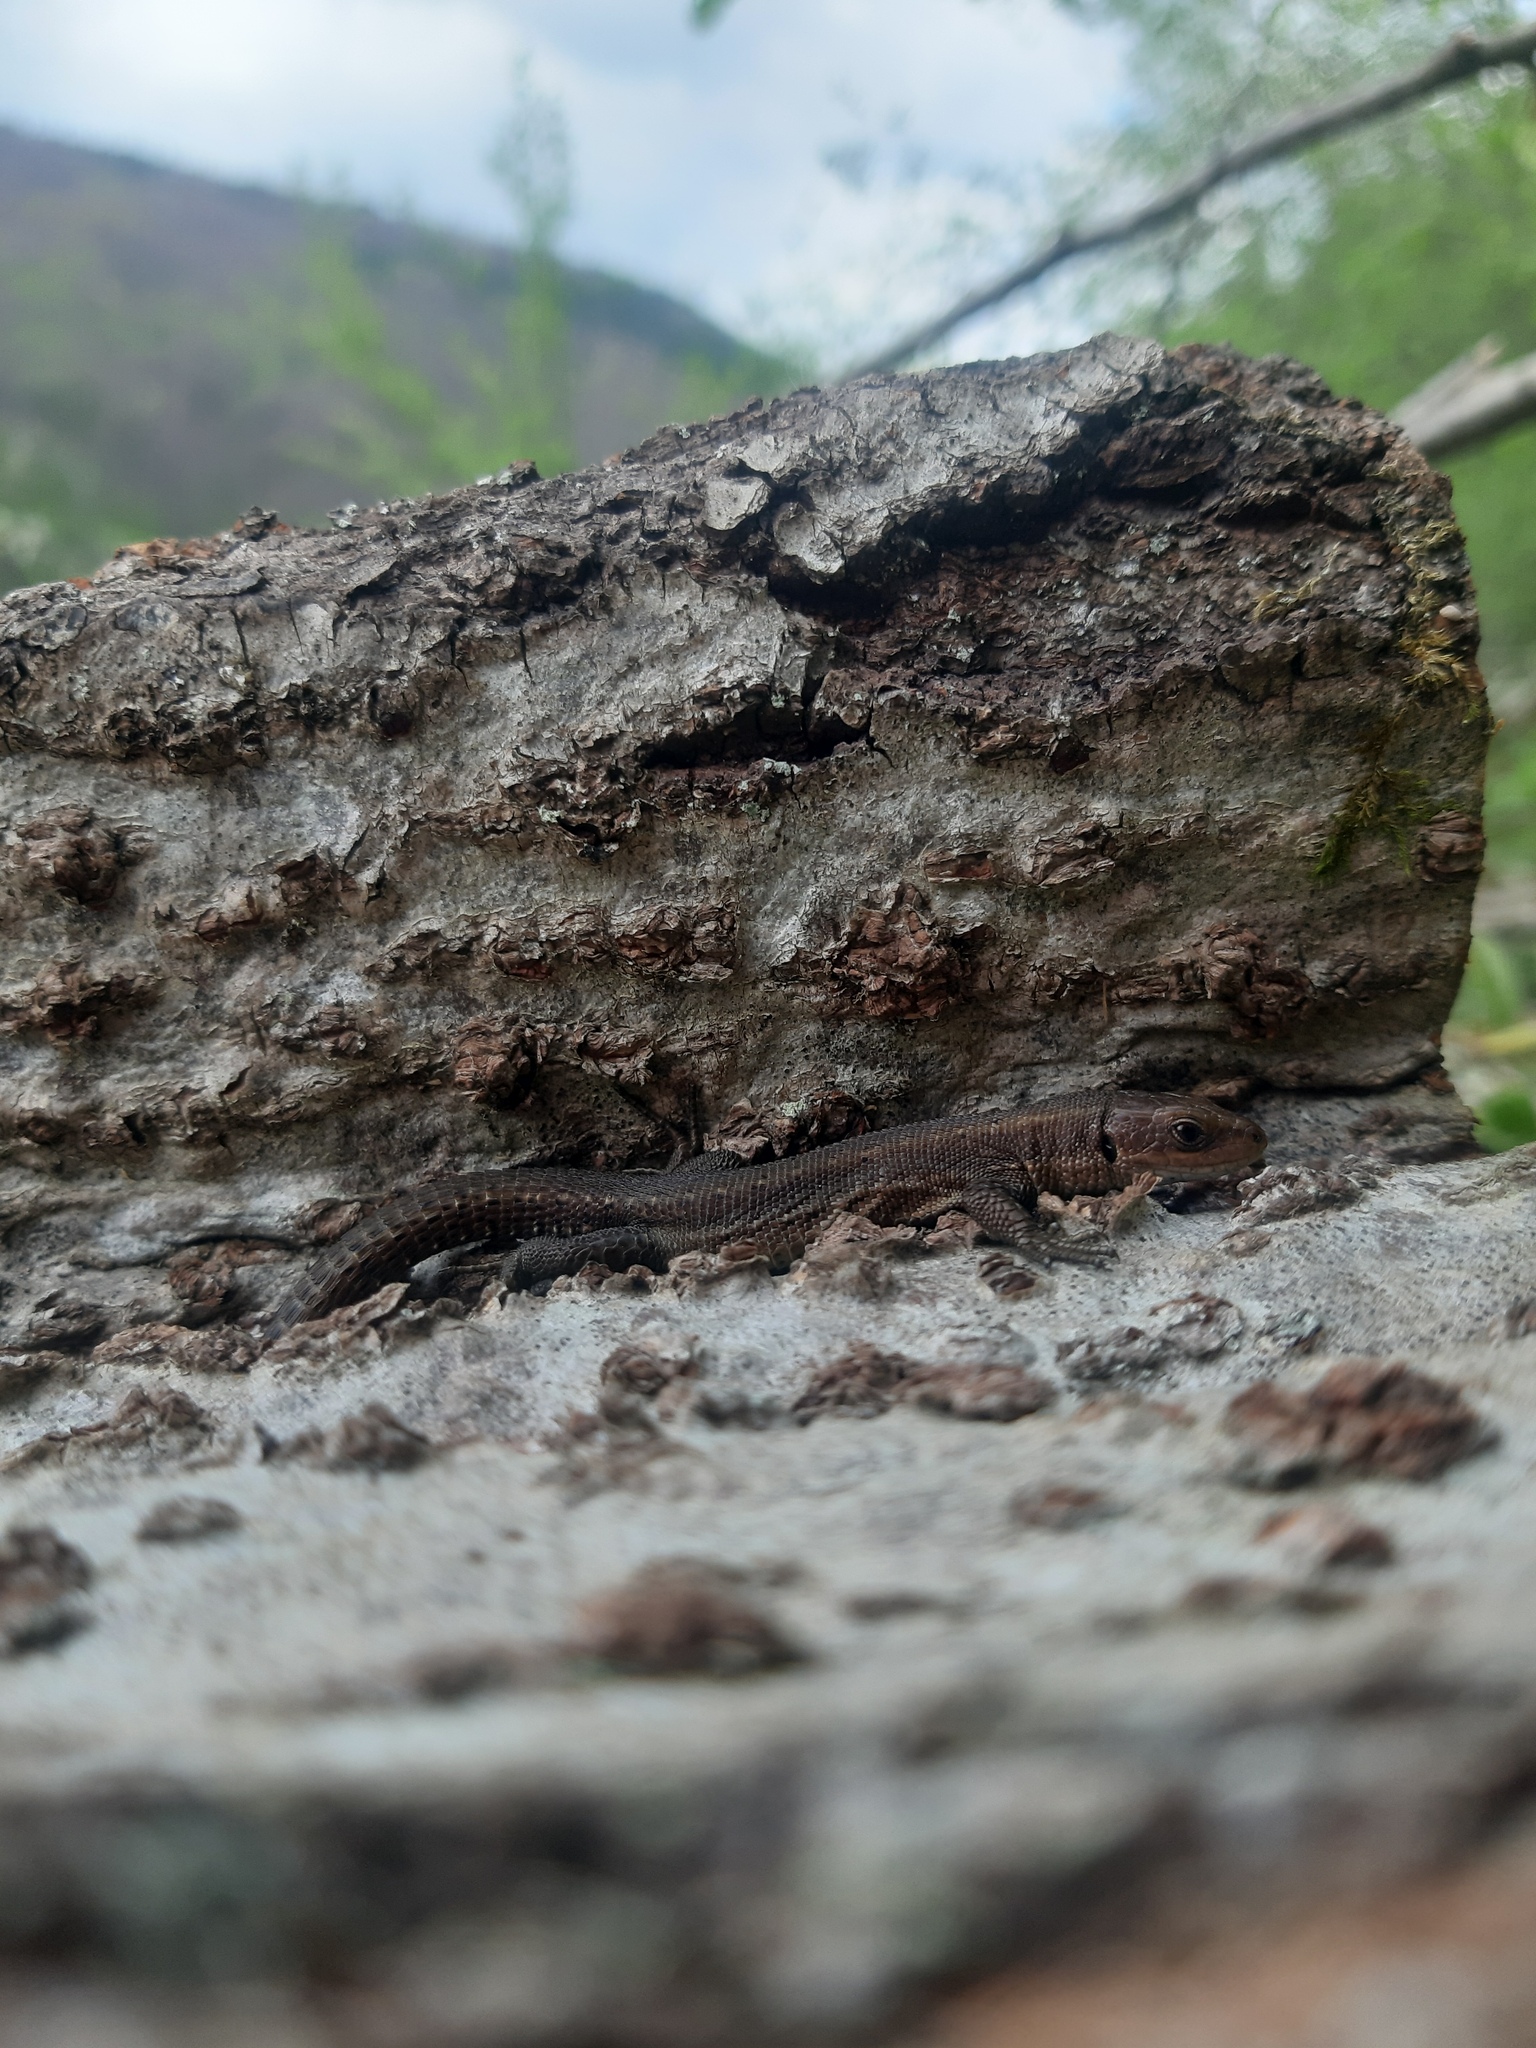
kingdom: Animalia
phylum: Chordata
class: Squamata
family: Lacertidae
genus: Zootoca
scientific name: Zootoca vivipara
